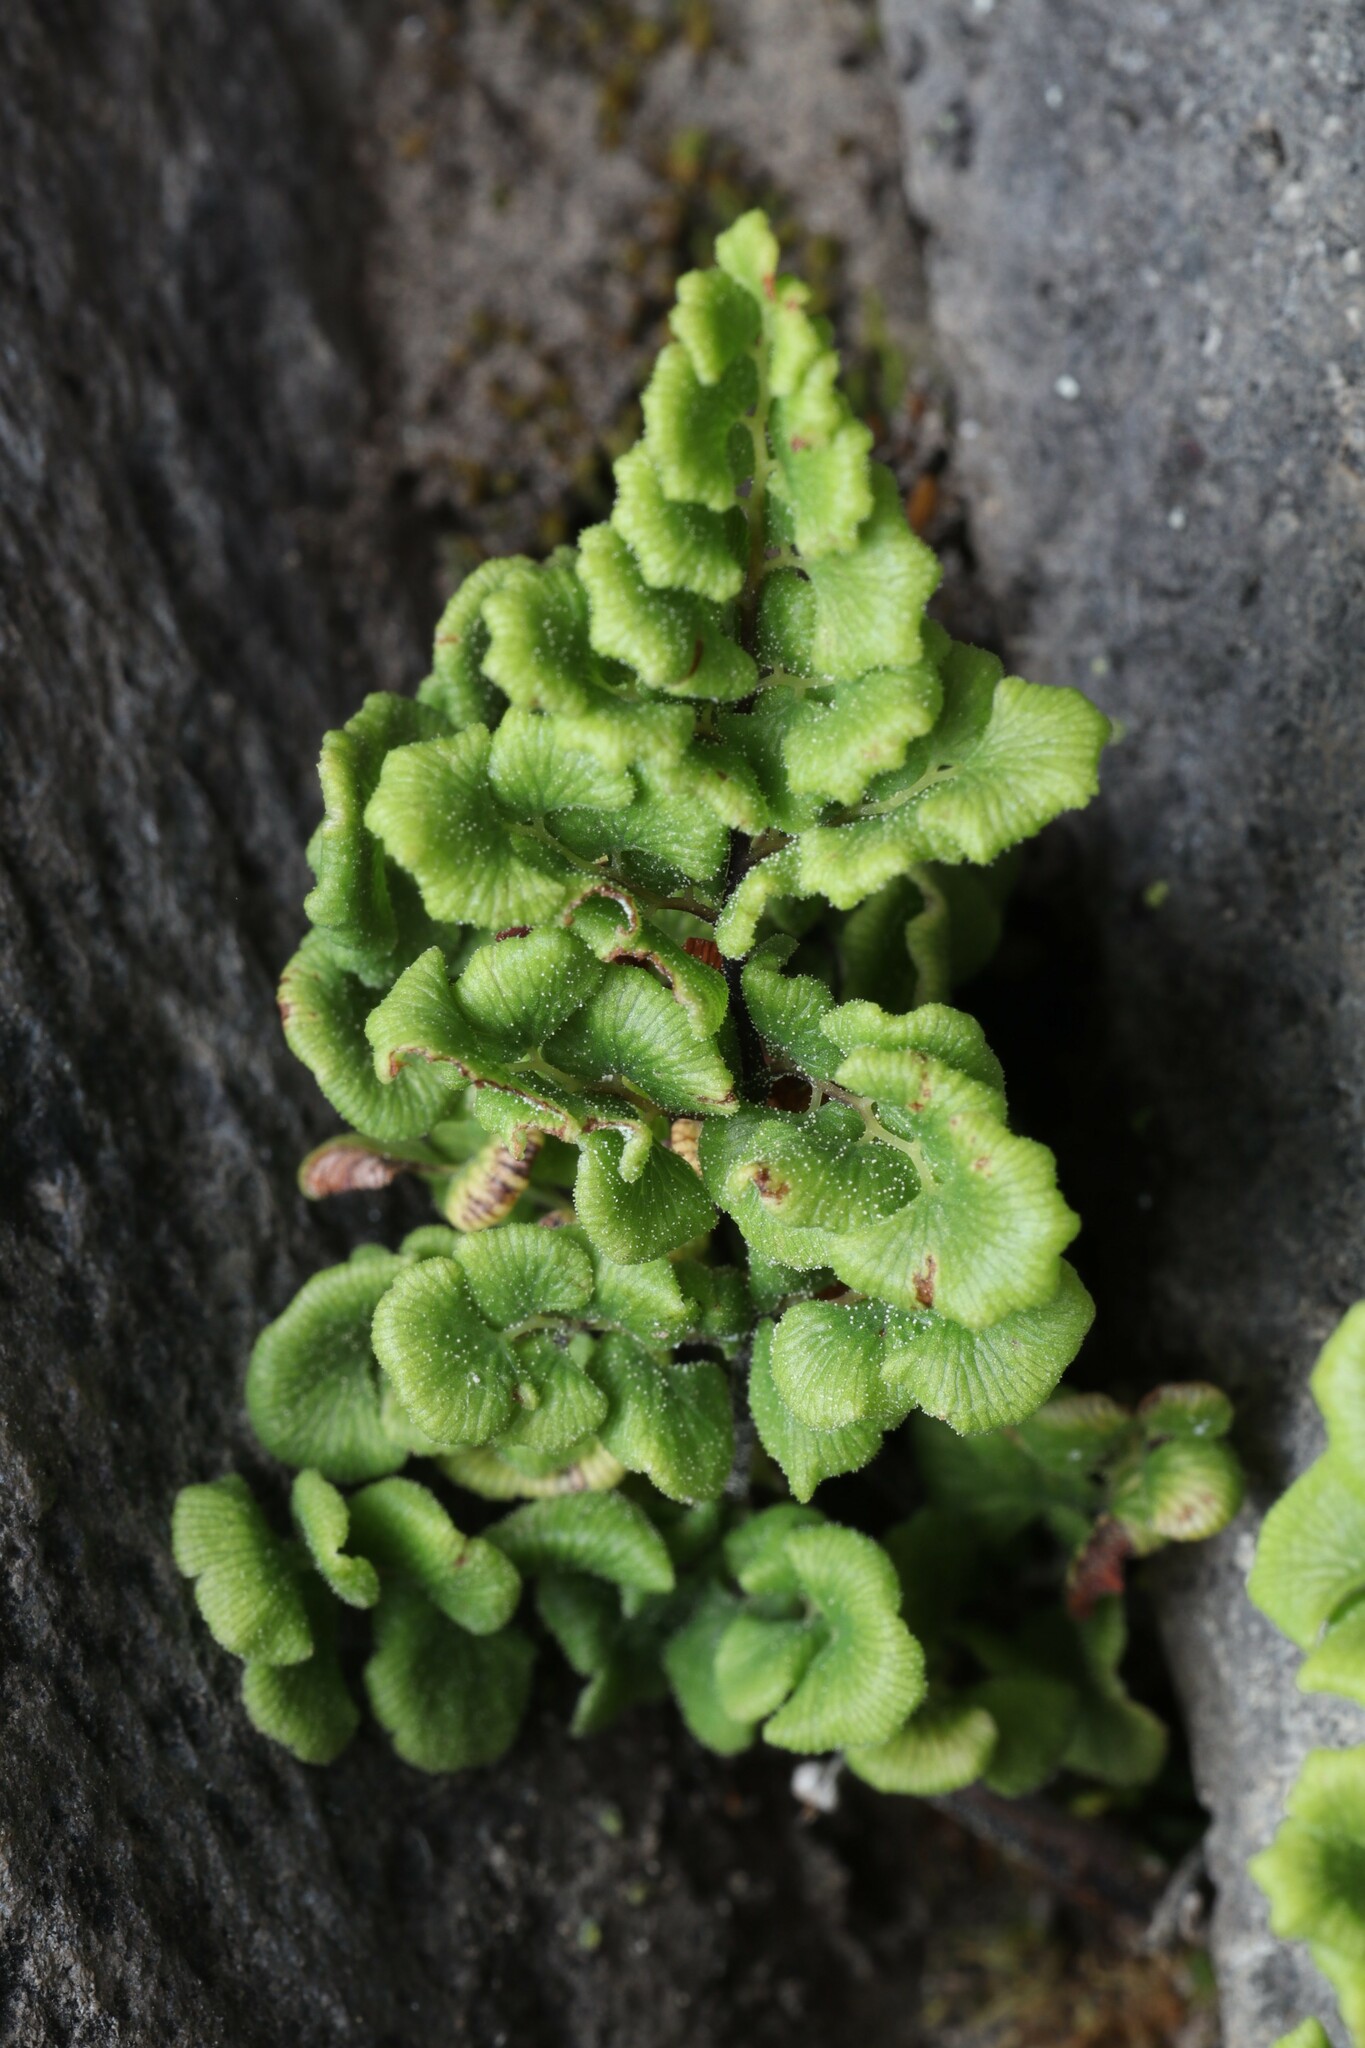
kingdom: Plantae
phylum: Tracheophyta
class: Polypodiopsida
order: Polypodiales
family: Pteridaceae
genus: Adiantum
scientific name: Adiantum chilense
